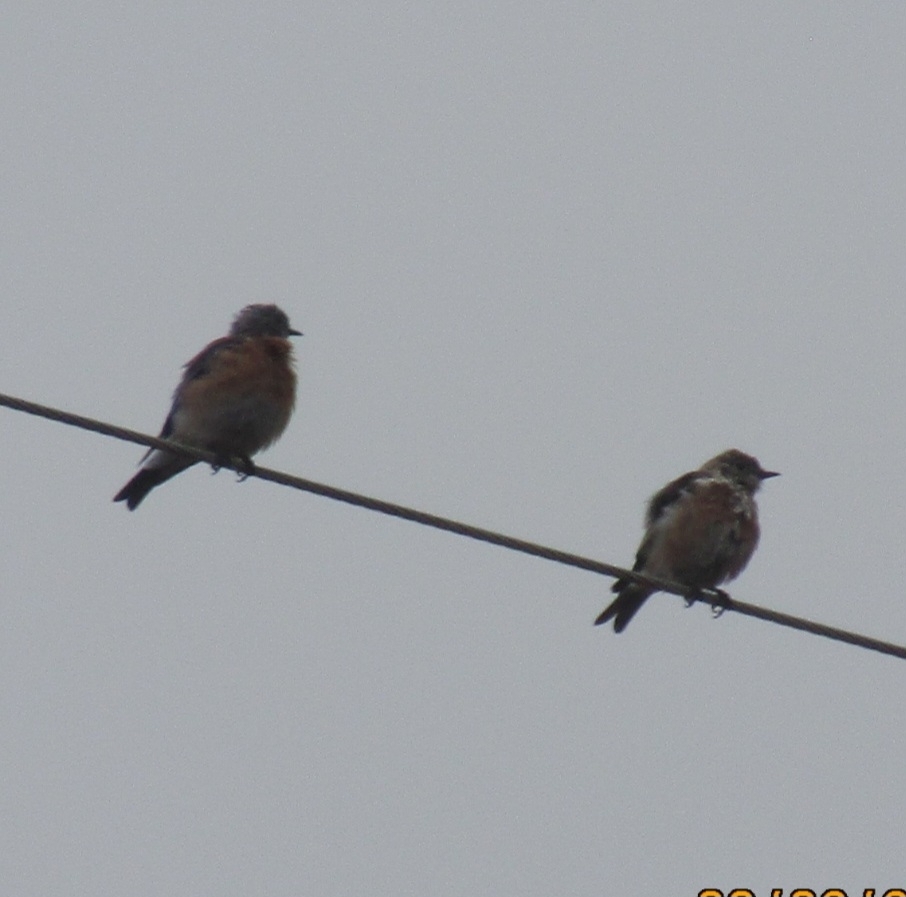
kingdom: Animalia
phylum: Chordata
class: Aves
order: Passeriformes
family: Turdidae
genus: Sialia
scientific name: Sialia mexicana
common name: Western bluebird
